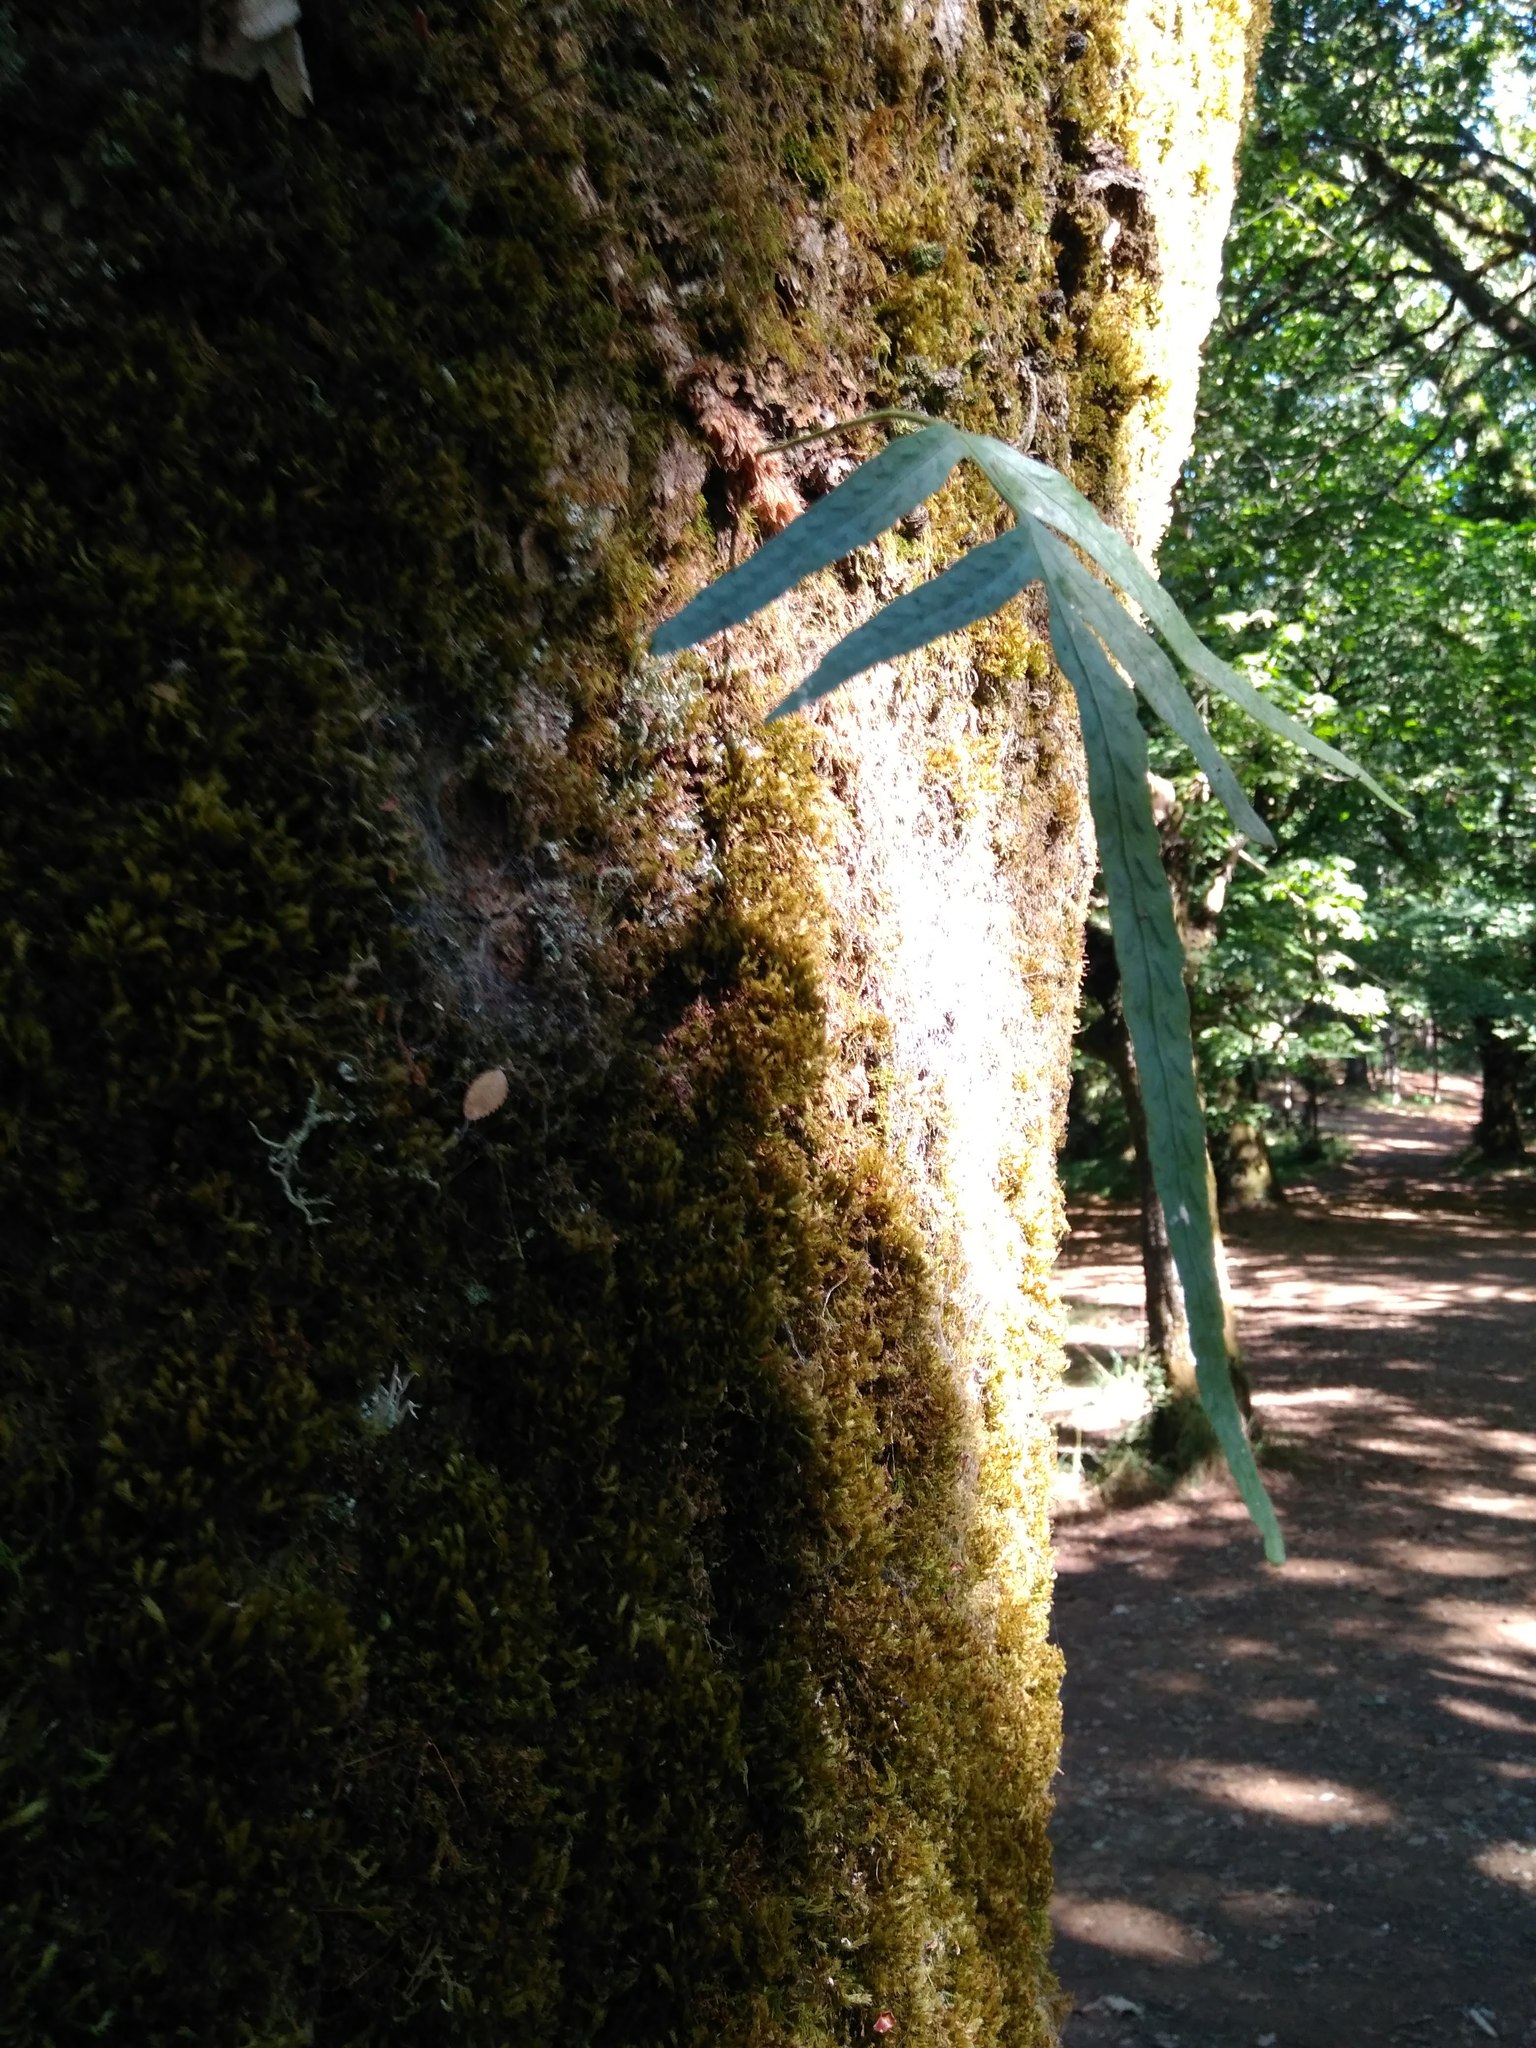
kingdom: Plantae
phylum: Tracheophyta
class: Polypodiopsida
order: Polypodiales
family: Polypodiaceae
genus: Synammia
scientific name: Synammia feuillei
